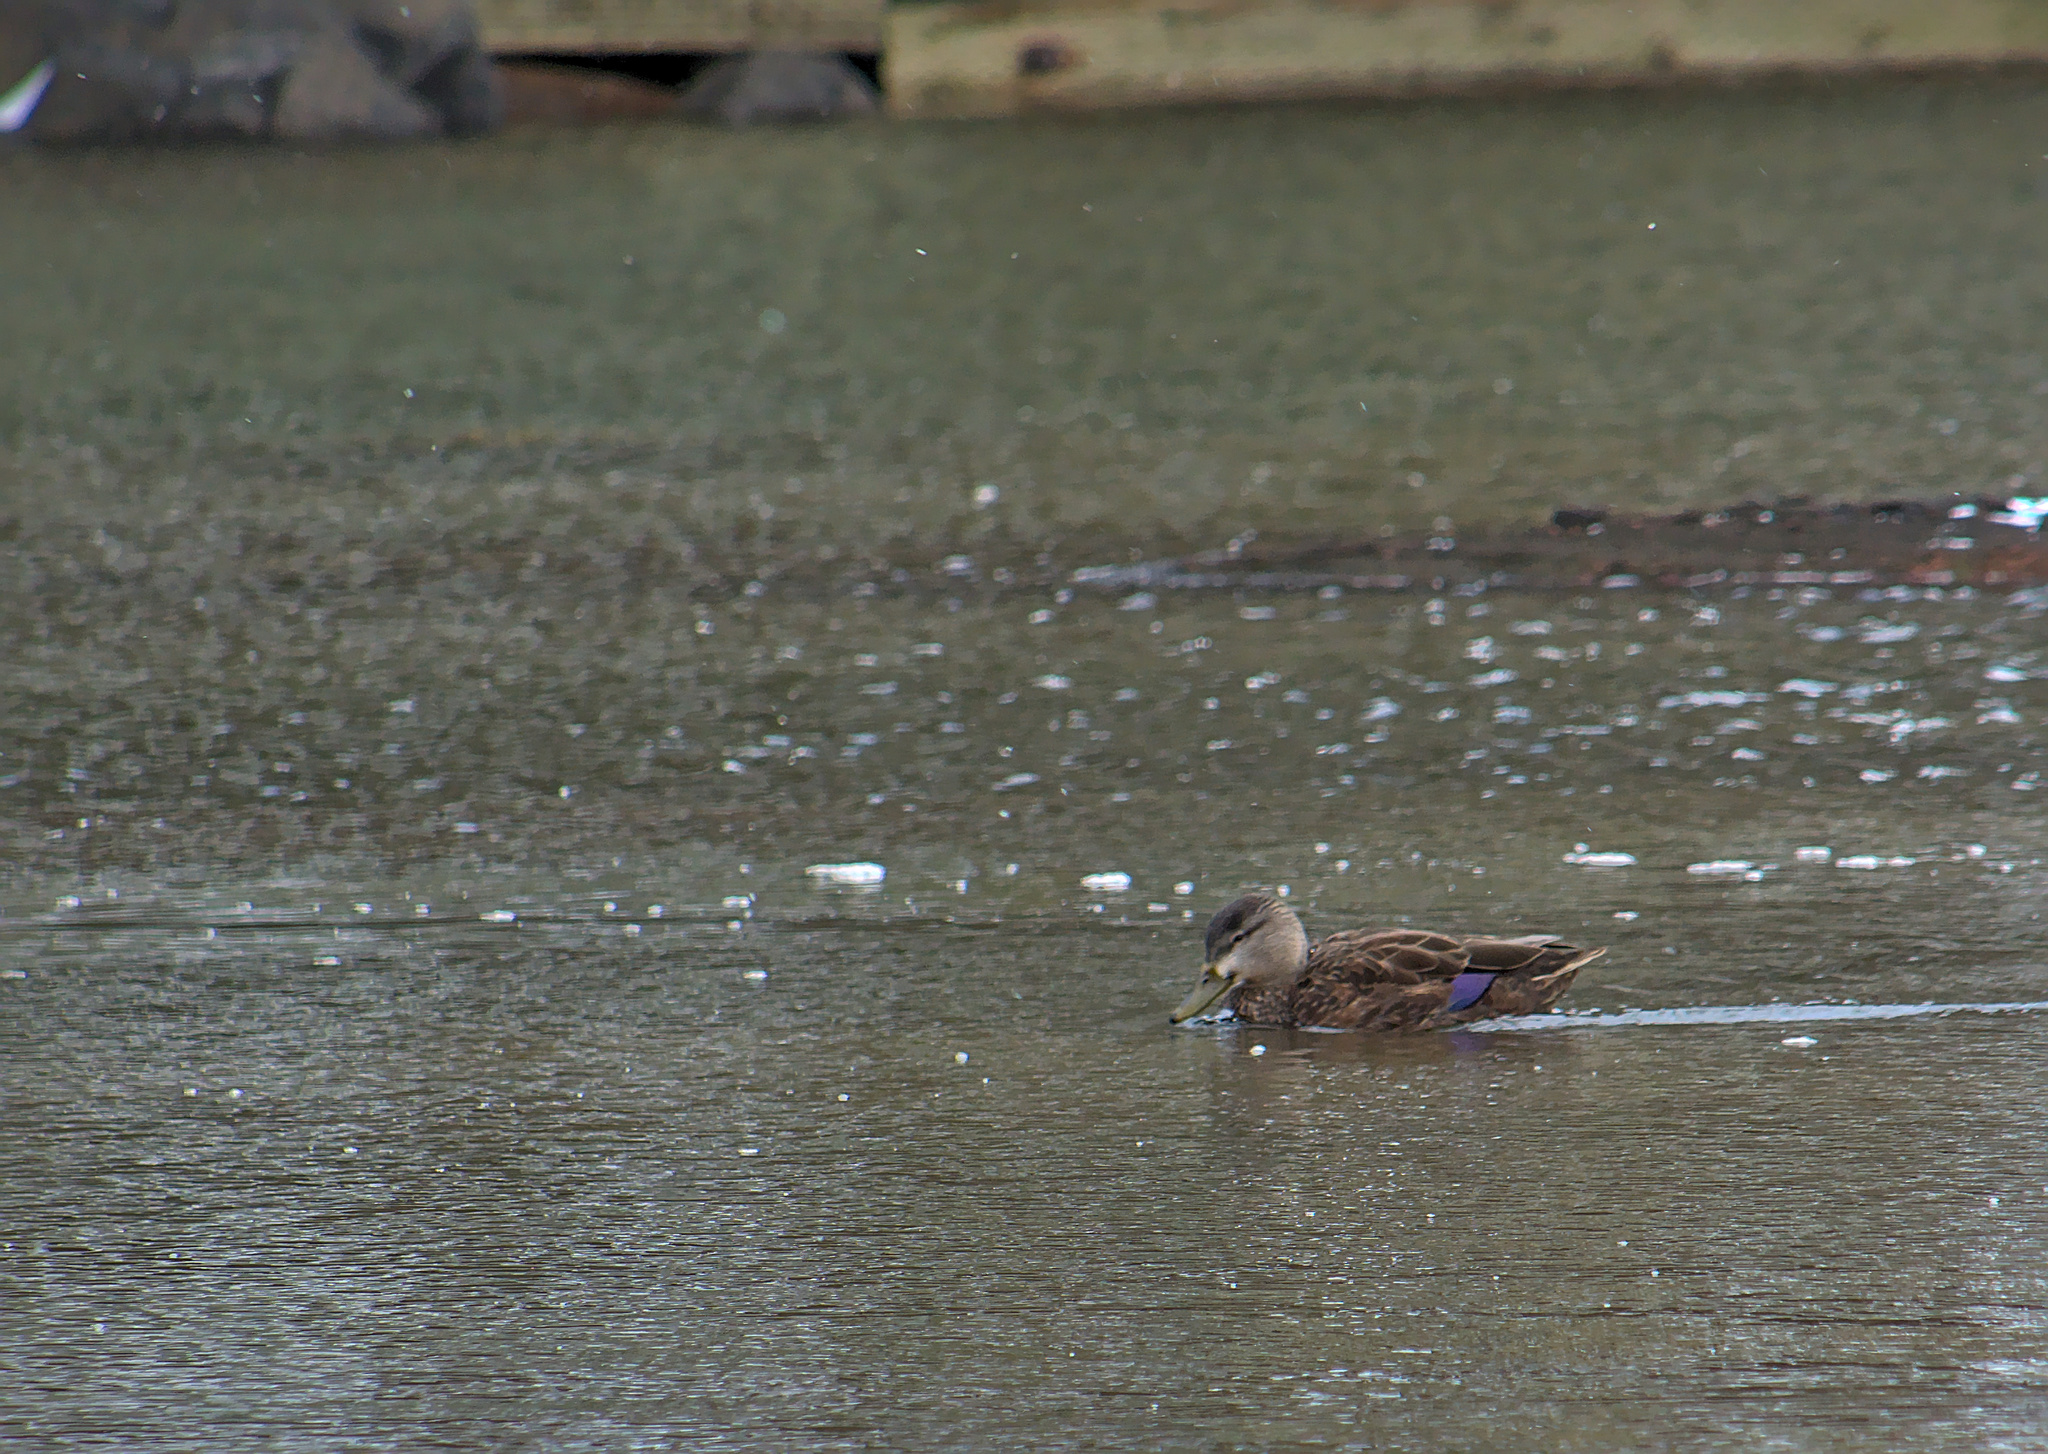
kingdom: Animalia
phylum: Chordata
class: Aves
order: Anseriformes
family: Anatidae
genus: Anas
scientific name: Anas rubripes
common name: American black duck
